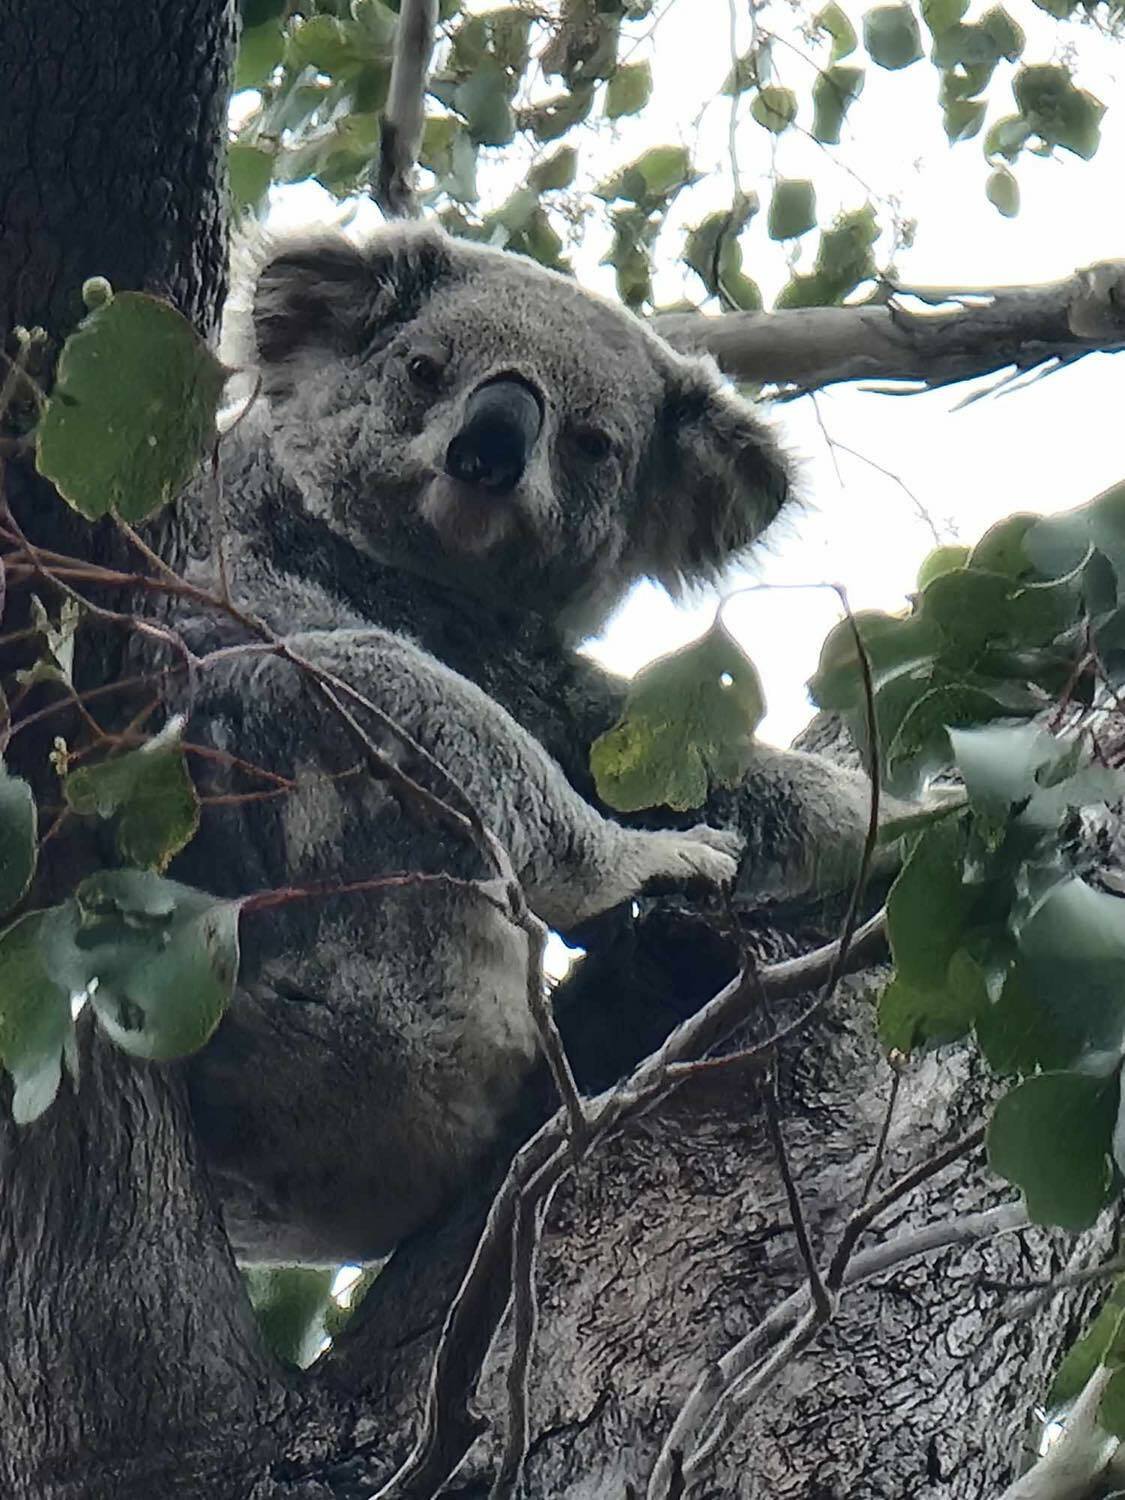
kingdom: Animalia
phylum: Chordata
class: Mammalia
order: Diprotodontia
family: Phascolarctidae
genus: Phascolarctos
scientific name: Phascolarctos cinereus
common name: Koala
